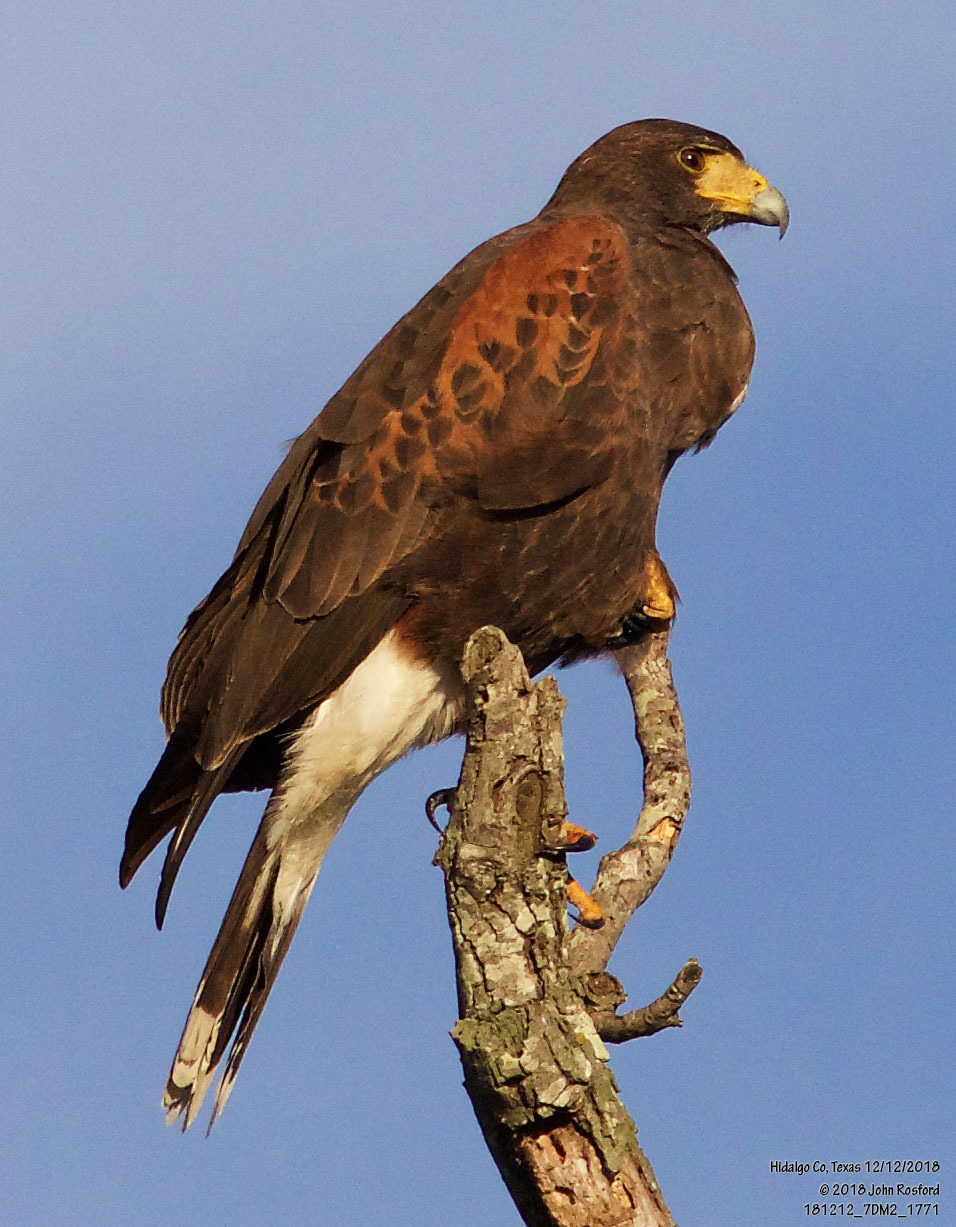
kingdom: Animalia
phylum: Chordata
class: Aves
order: Accipitriformes
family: Accipitridae
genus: Parabuteo
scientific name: Parabuteo unicinctus
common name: Harris's hawk
